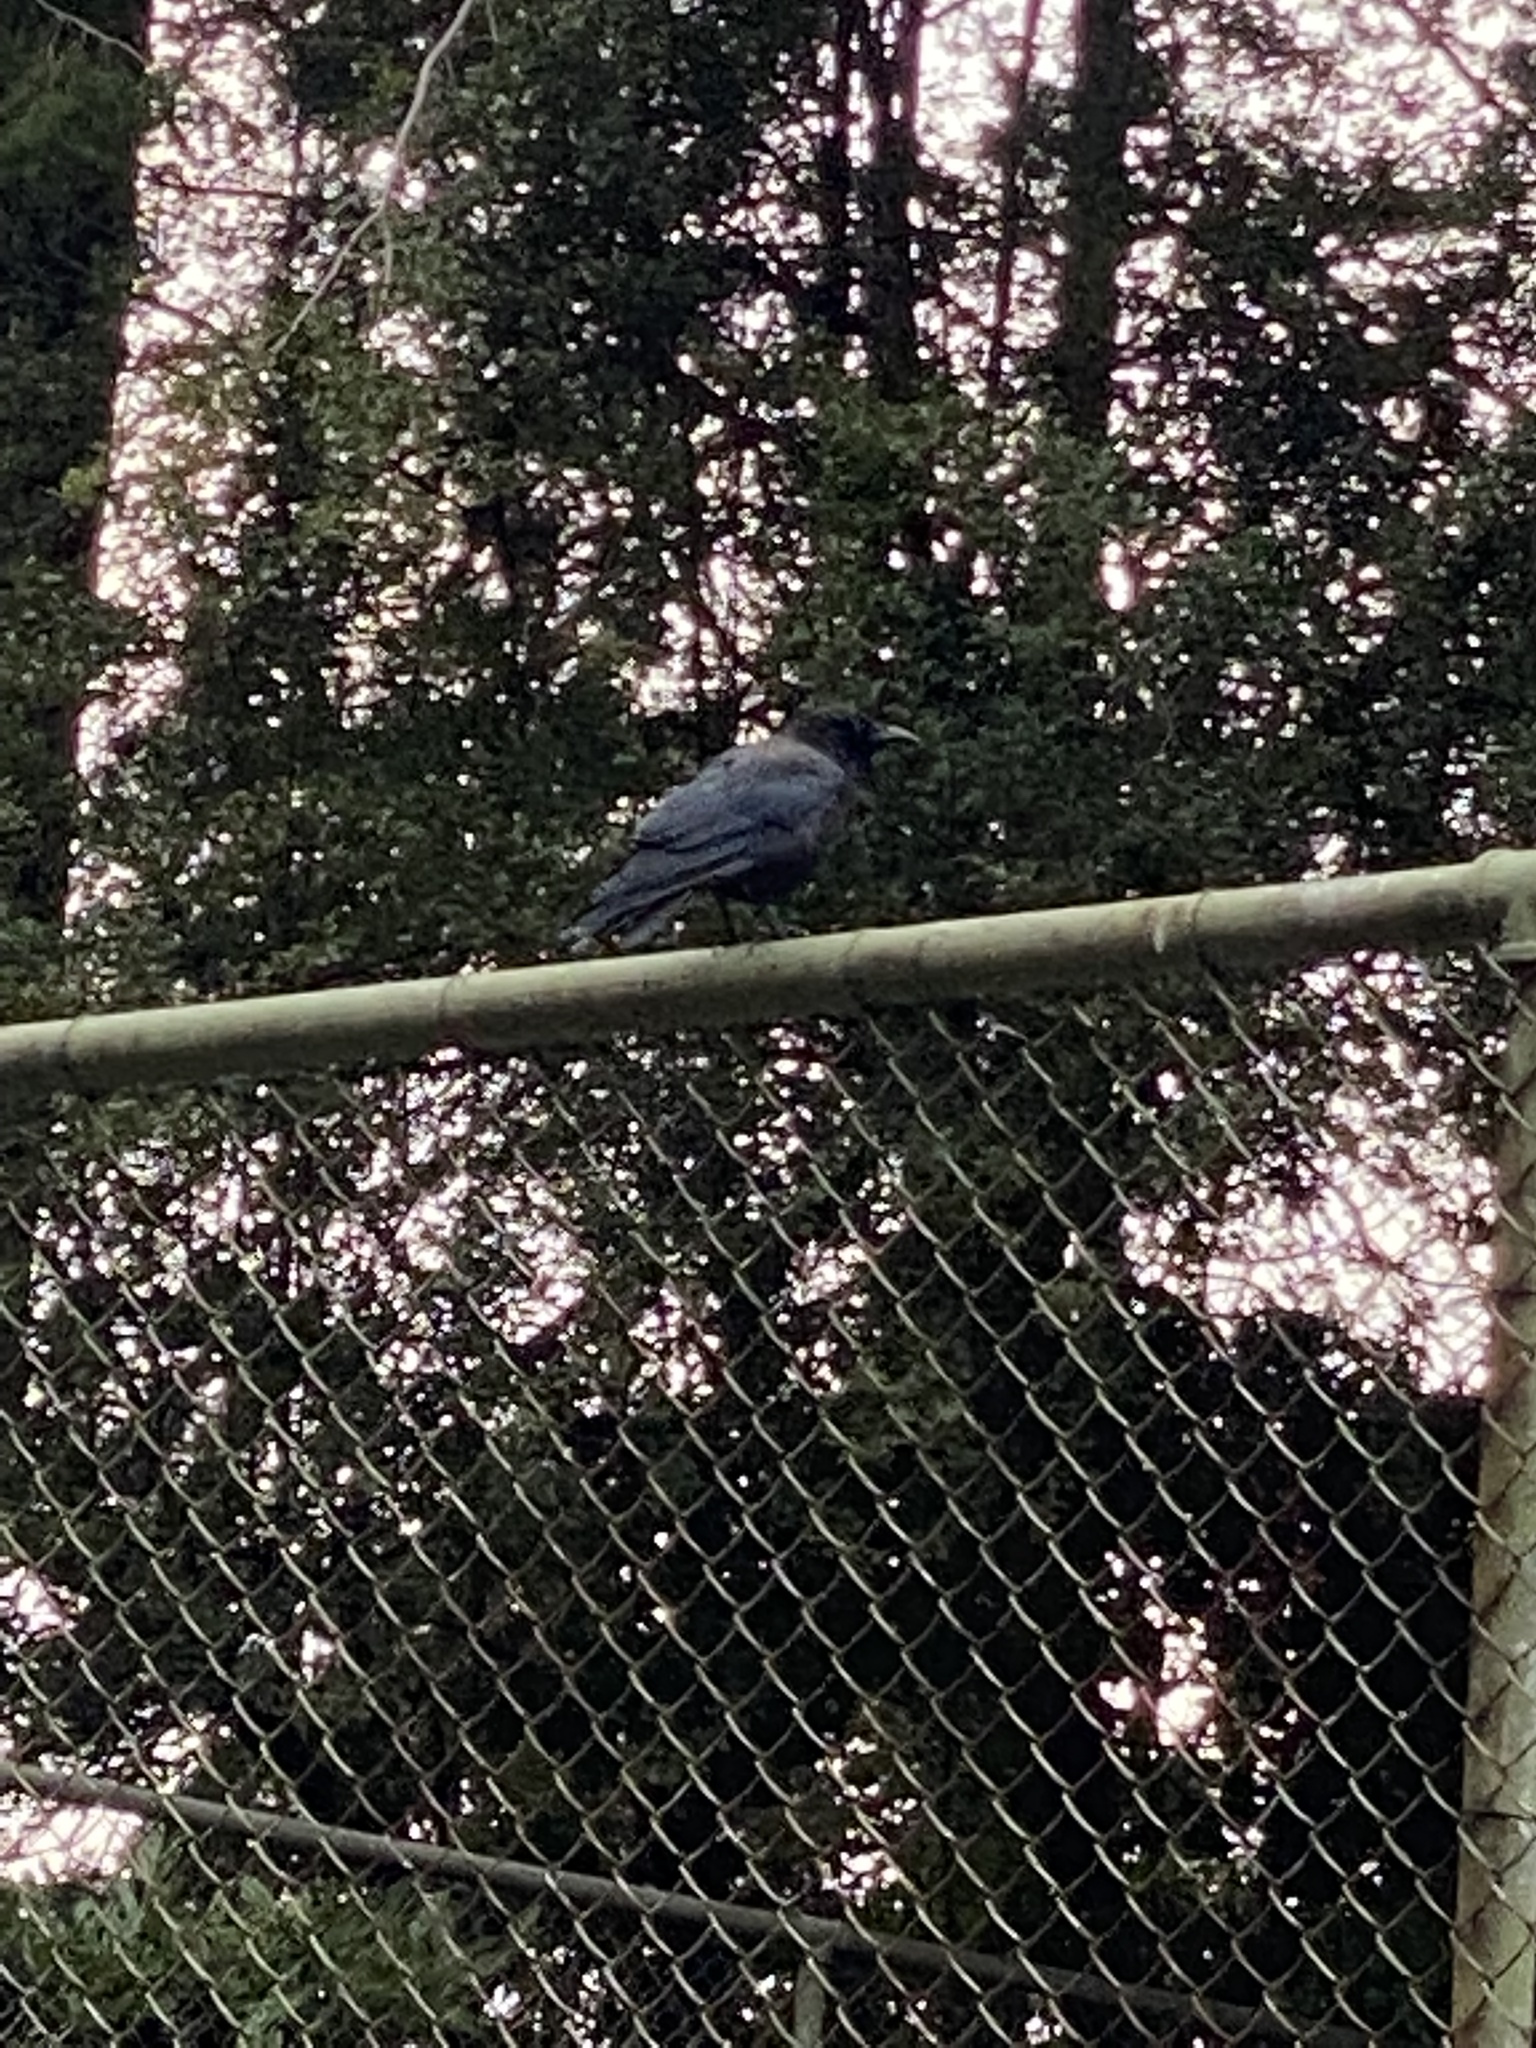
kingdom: Animalia
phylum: Chordata
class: Aves
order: Passeriformes
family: Corvidae
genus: Corvus
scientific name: Corvus brachyrhynchos
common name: American crow
